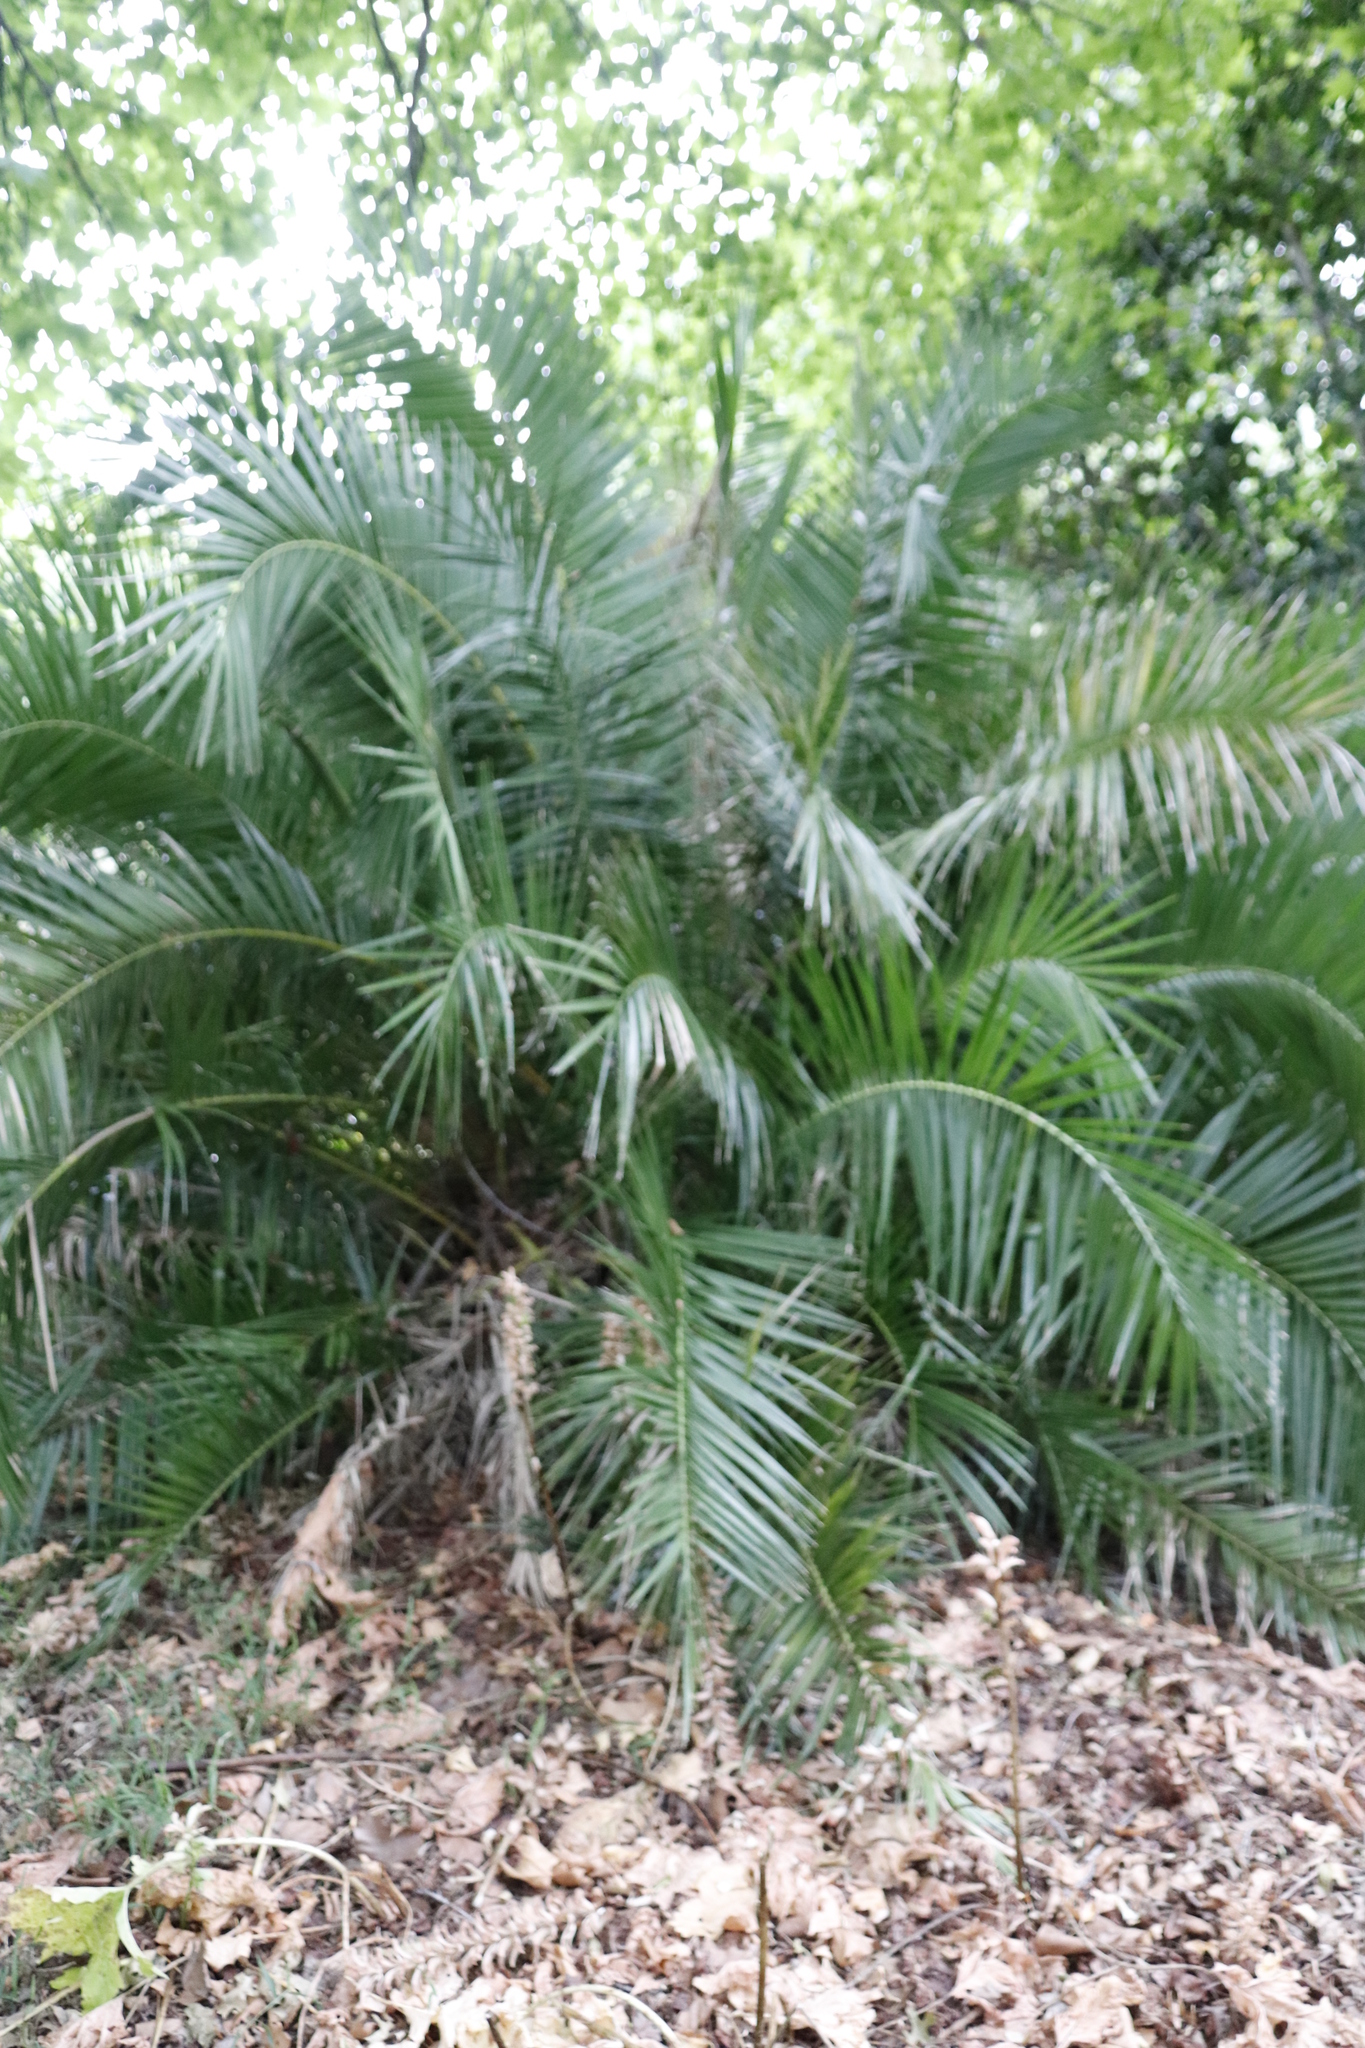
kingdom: Plantae
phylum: Tracheophyta
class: Liliopsida
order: Arecales
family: Arecaceae
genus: Phoenix
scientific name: Phoenix reclinata
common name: Senegal date palm
